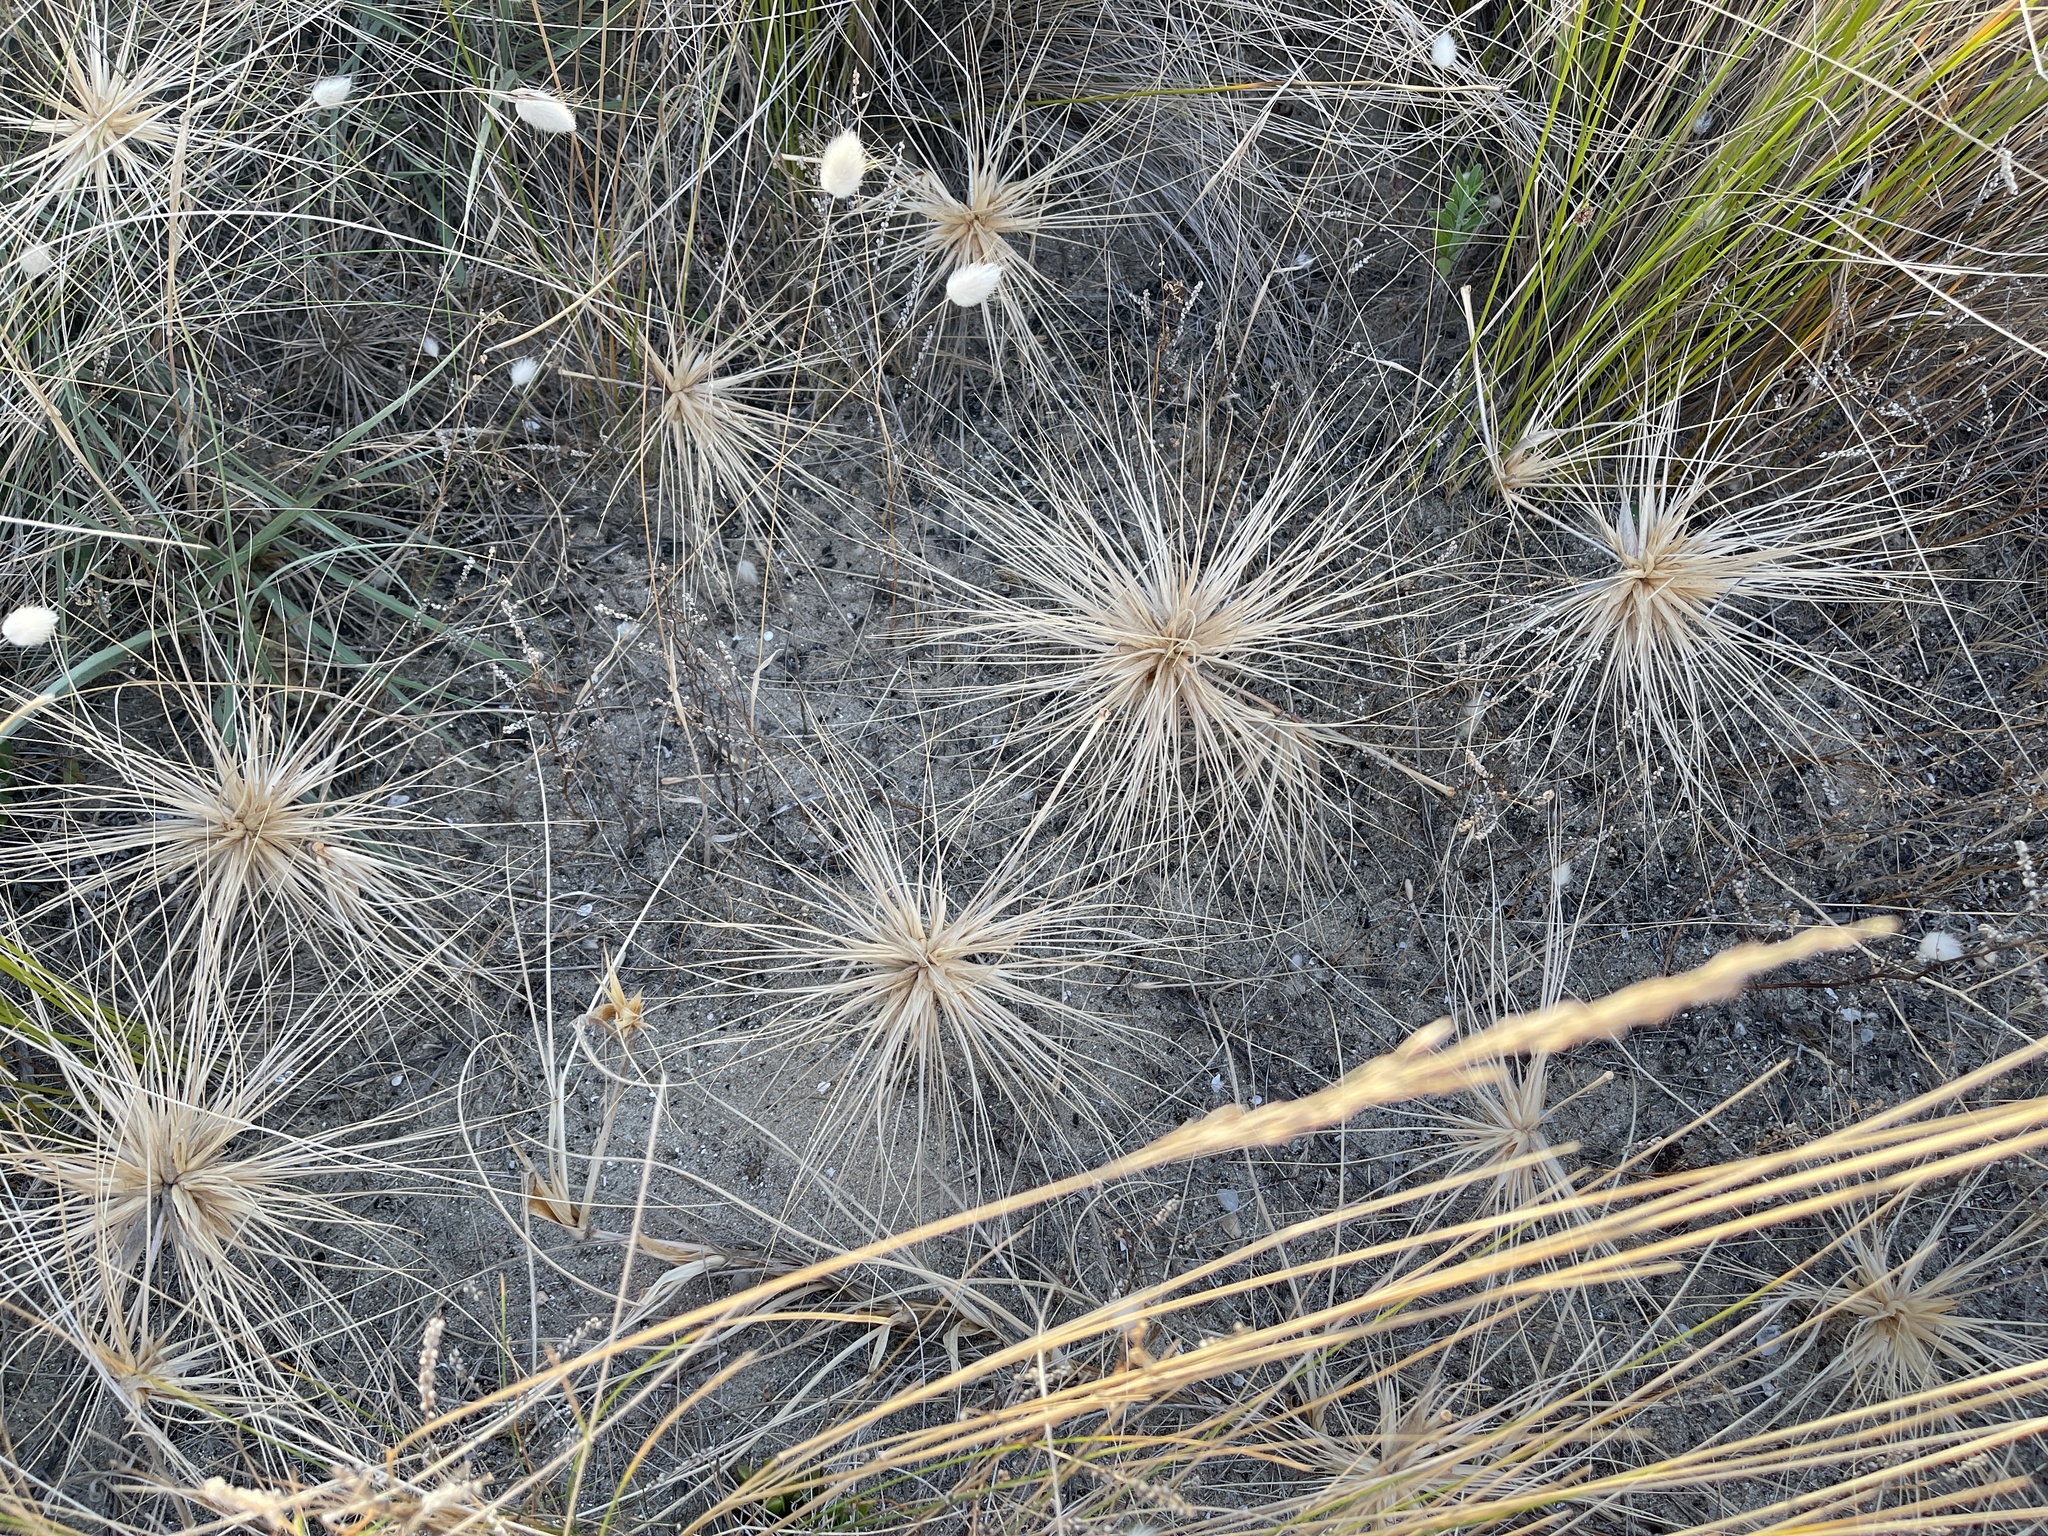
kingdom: Plantae
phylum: Tracheophyta
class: Liliopsida
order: Poales
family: Poaceae
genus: Spinifex
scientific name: Spinifex sericeus
